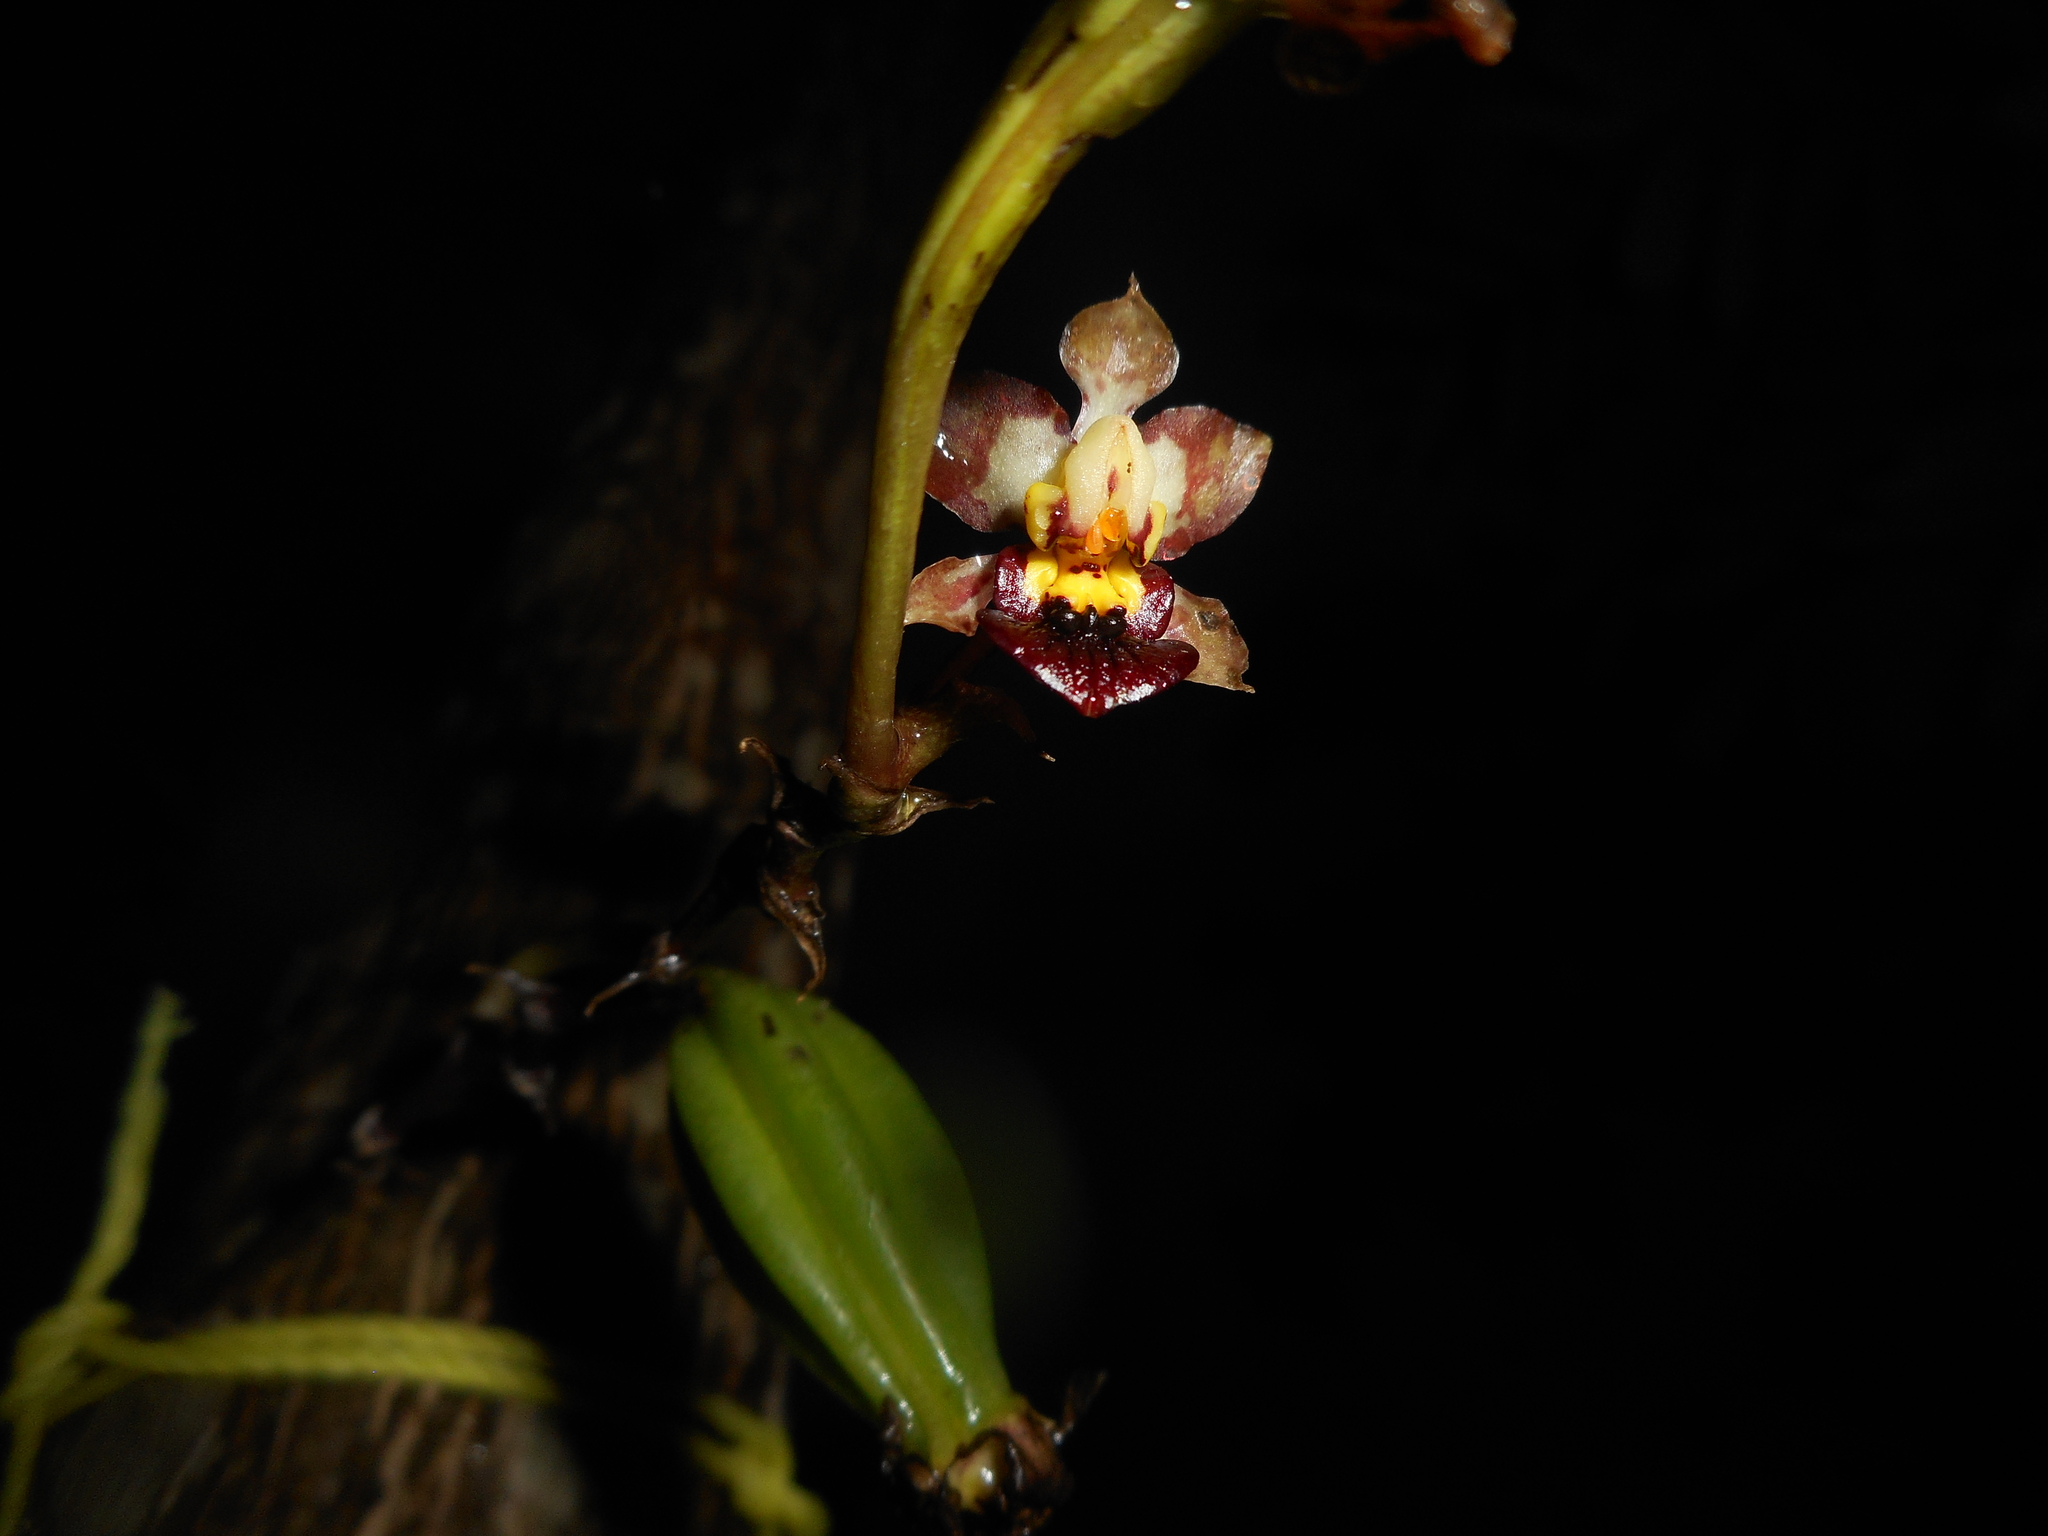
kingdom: Plantae
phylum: Tracheophyta
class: Liliopsida
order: Asparagales
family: Orchidaceae
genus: Trichocentrum
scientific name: Trichocentrum lindenii
